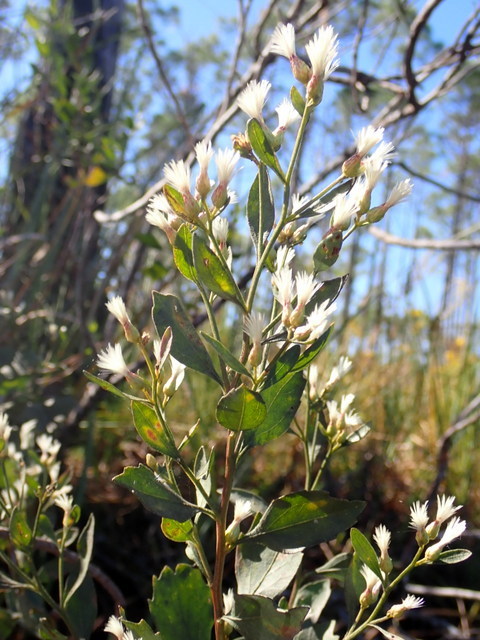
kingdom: Plantae
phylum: Tracheophyta
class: Magnoliopsida
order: Asterales
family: Asteraceae
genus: Baccharis
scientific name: Baccharis halimifolia
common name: Eastern baccharis
